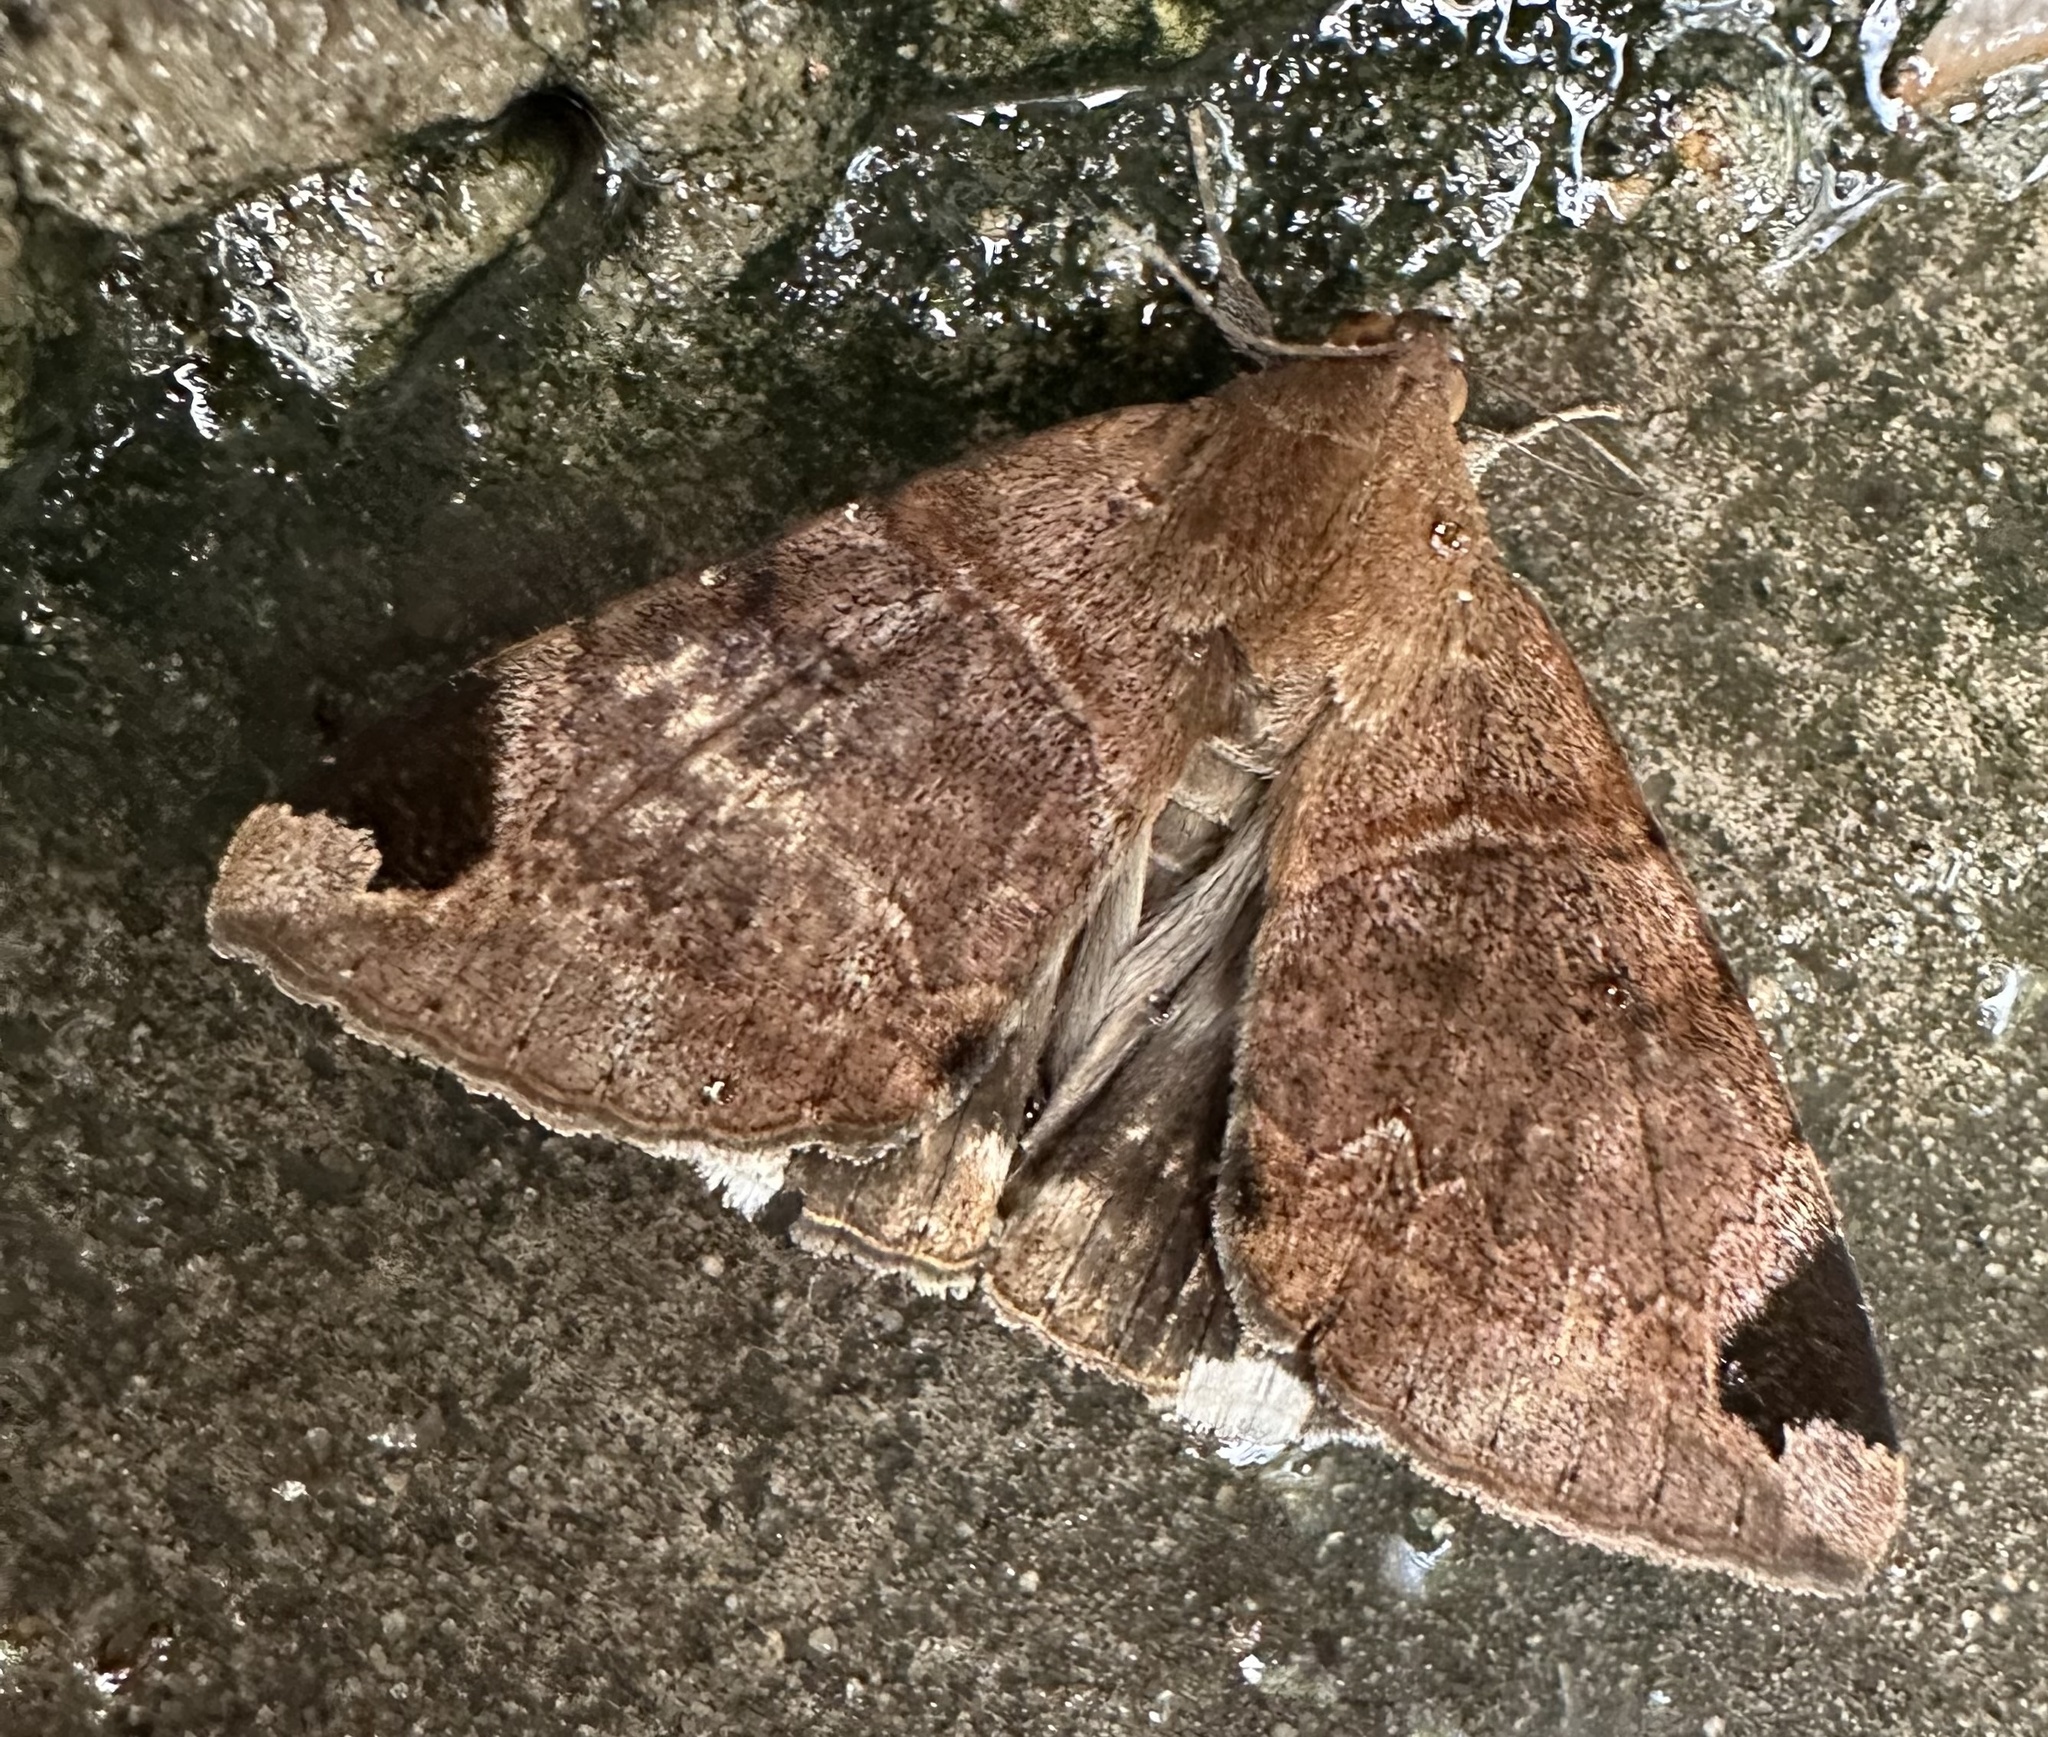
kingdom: Animalia
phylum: Arthropoda
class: Insecta
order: Lepidoptera
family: Erebidae
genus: Achaea
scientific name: Achaea lienardi
